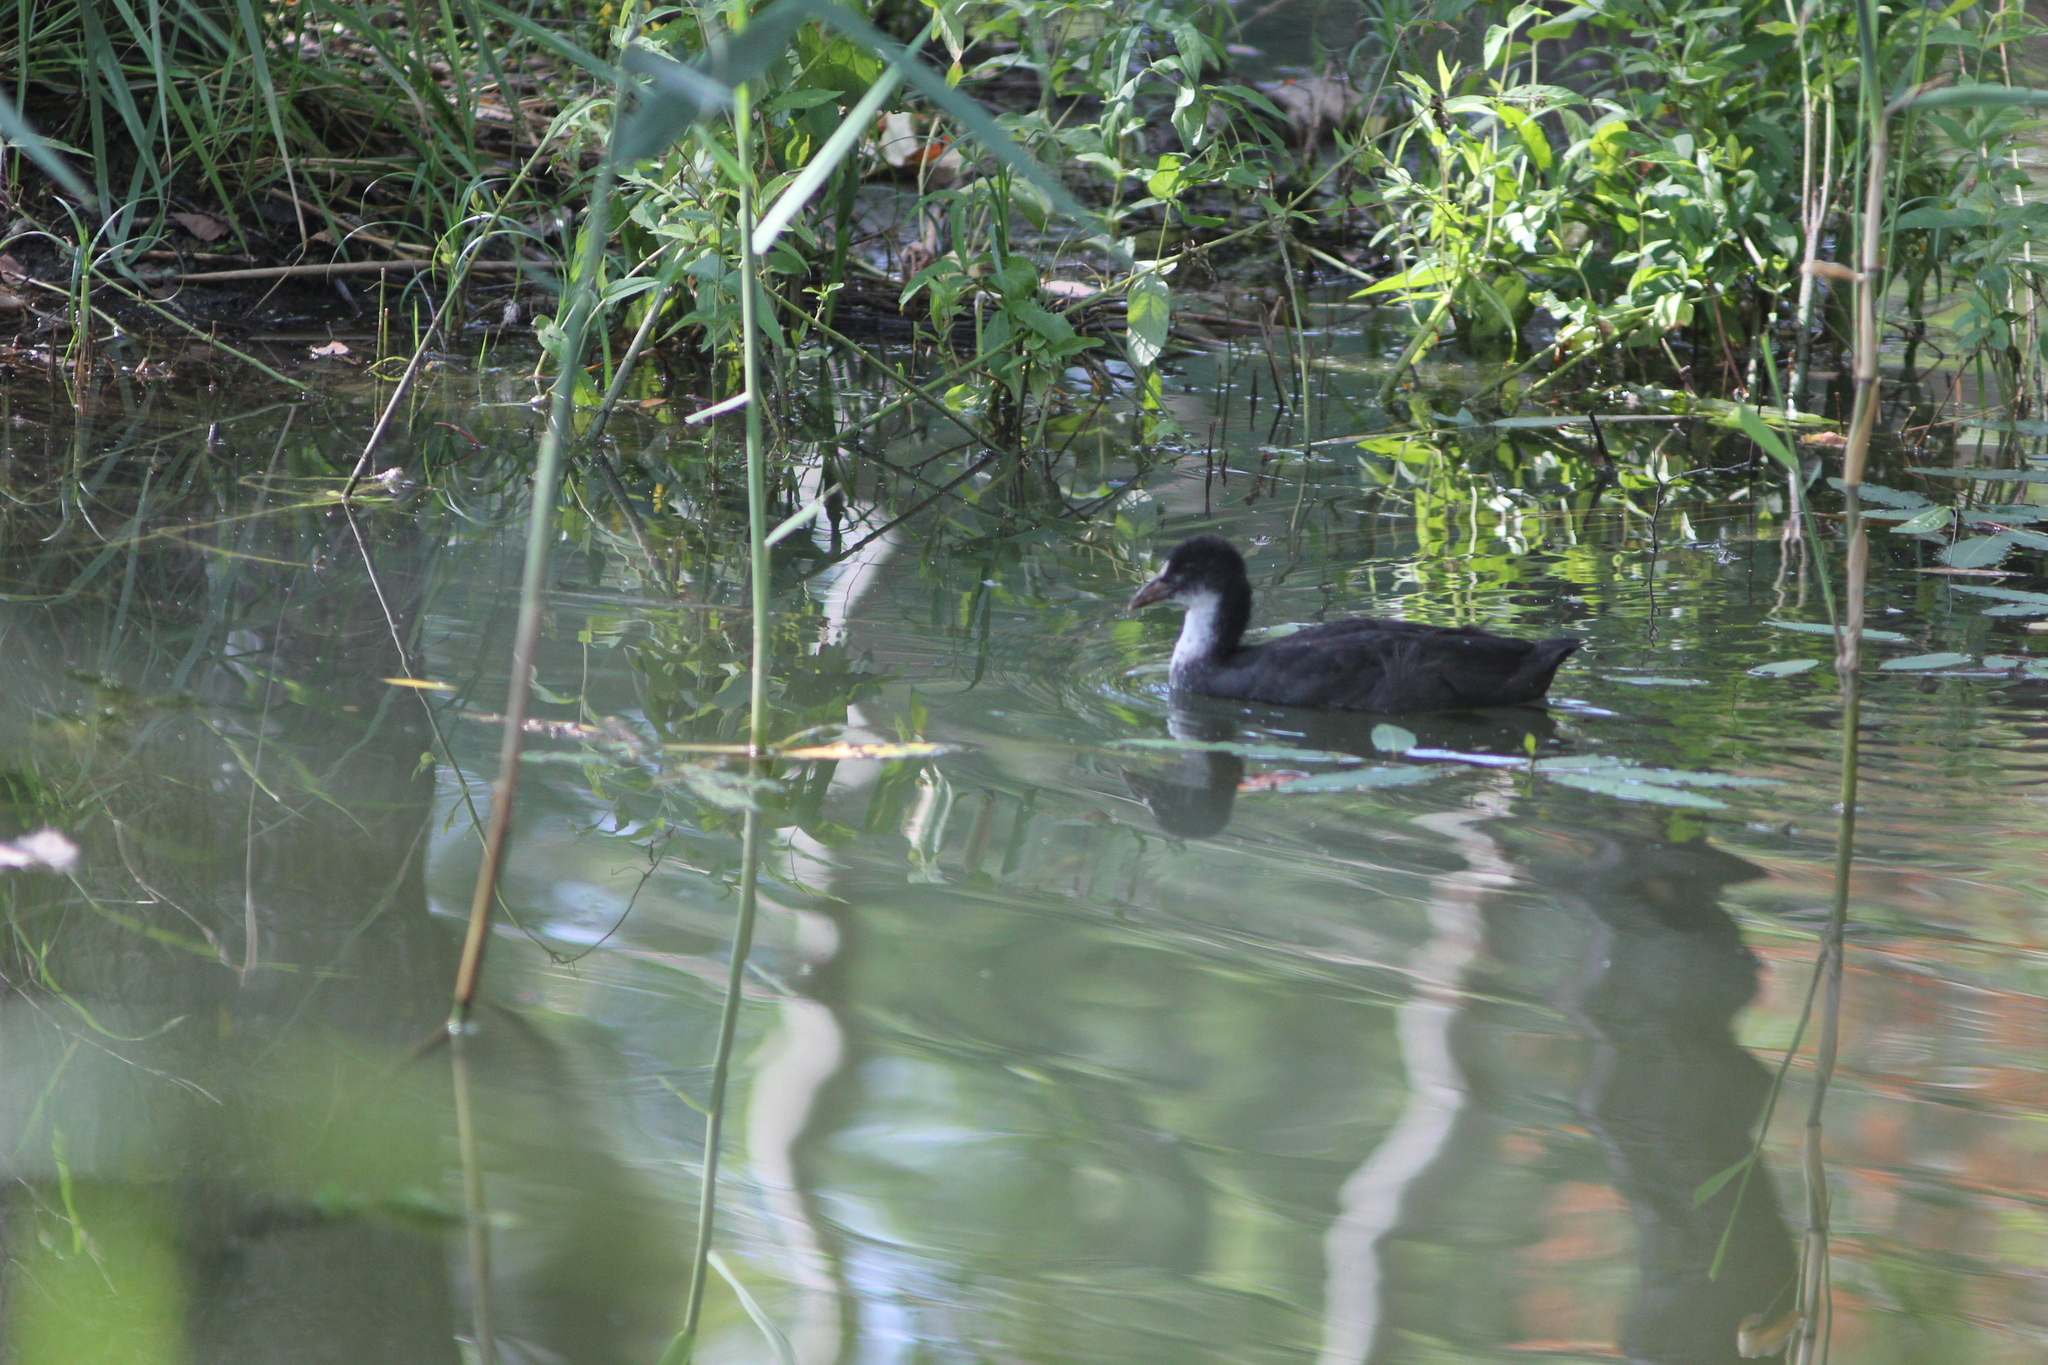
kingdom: Animalia
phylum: Chordata
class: Aves
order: Gruiformes
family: Rallidae
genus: Fulica
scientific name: Fulica atra
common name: Eurasian coot
